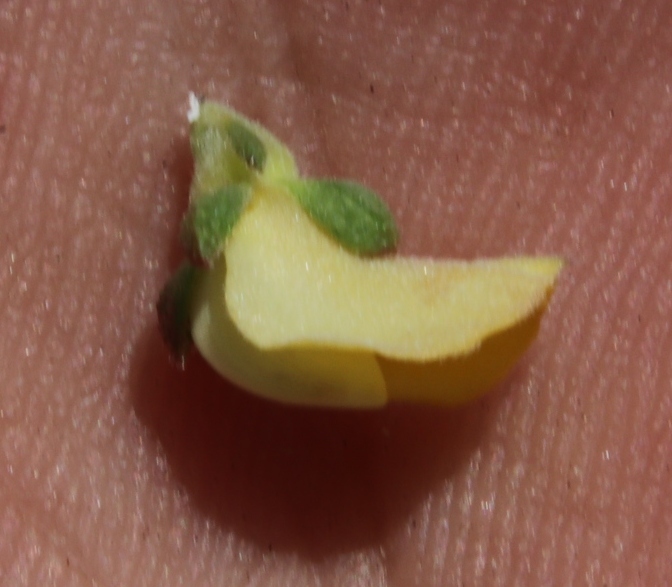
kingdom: Plantae
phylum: Tracheophyta
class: Magnoliopsida
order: Fabales
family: Fabaceae
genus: Aspalathus
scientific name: Aspalathus cymbiformis
